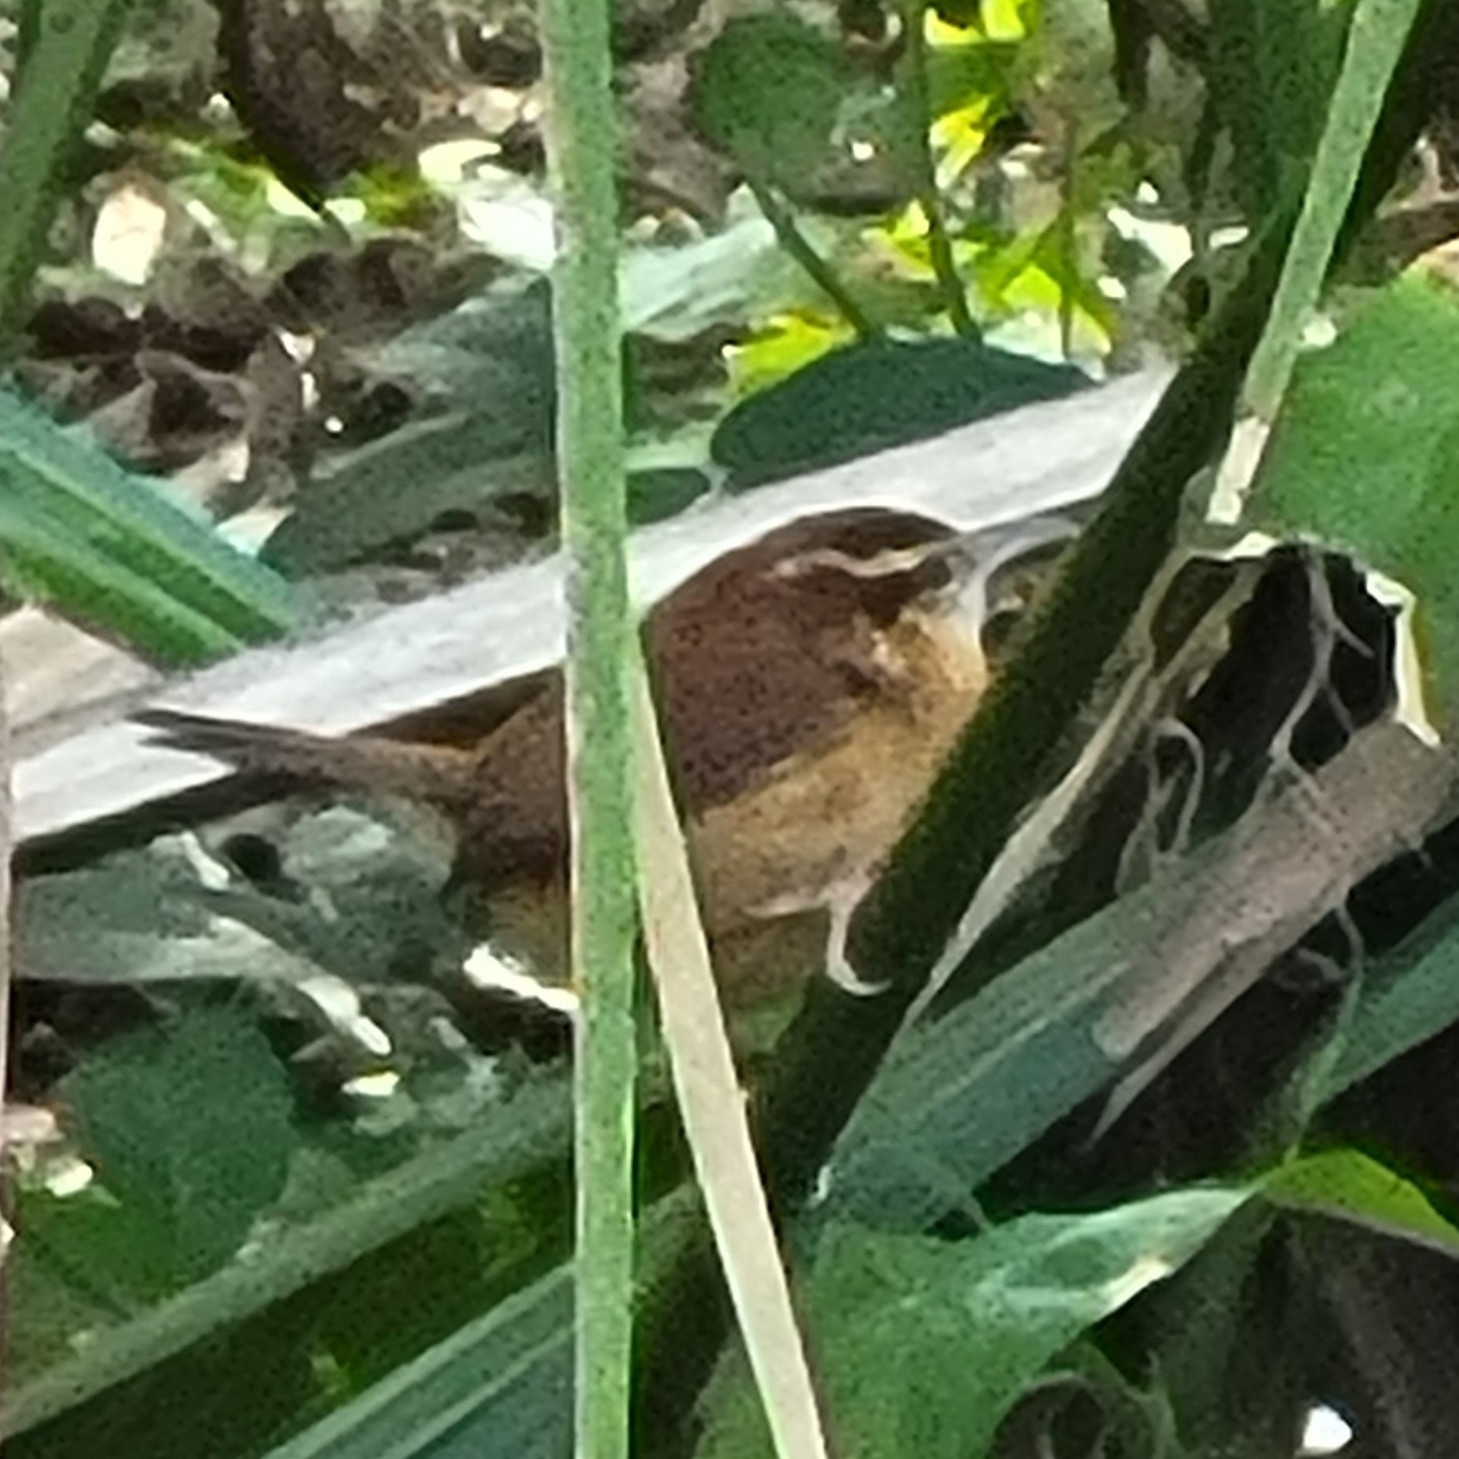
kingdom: Animalia
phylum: Chordata
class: Aves
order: Passeriformes
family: Troglodytidae
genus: Thryothorus
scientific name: Thryothorus ludovicianus
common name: Carolina wren
